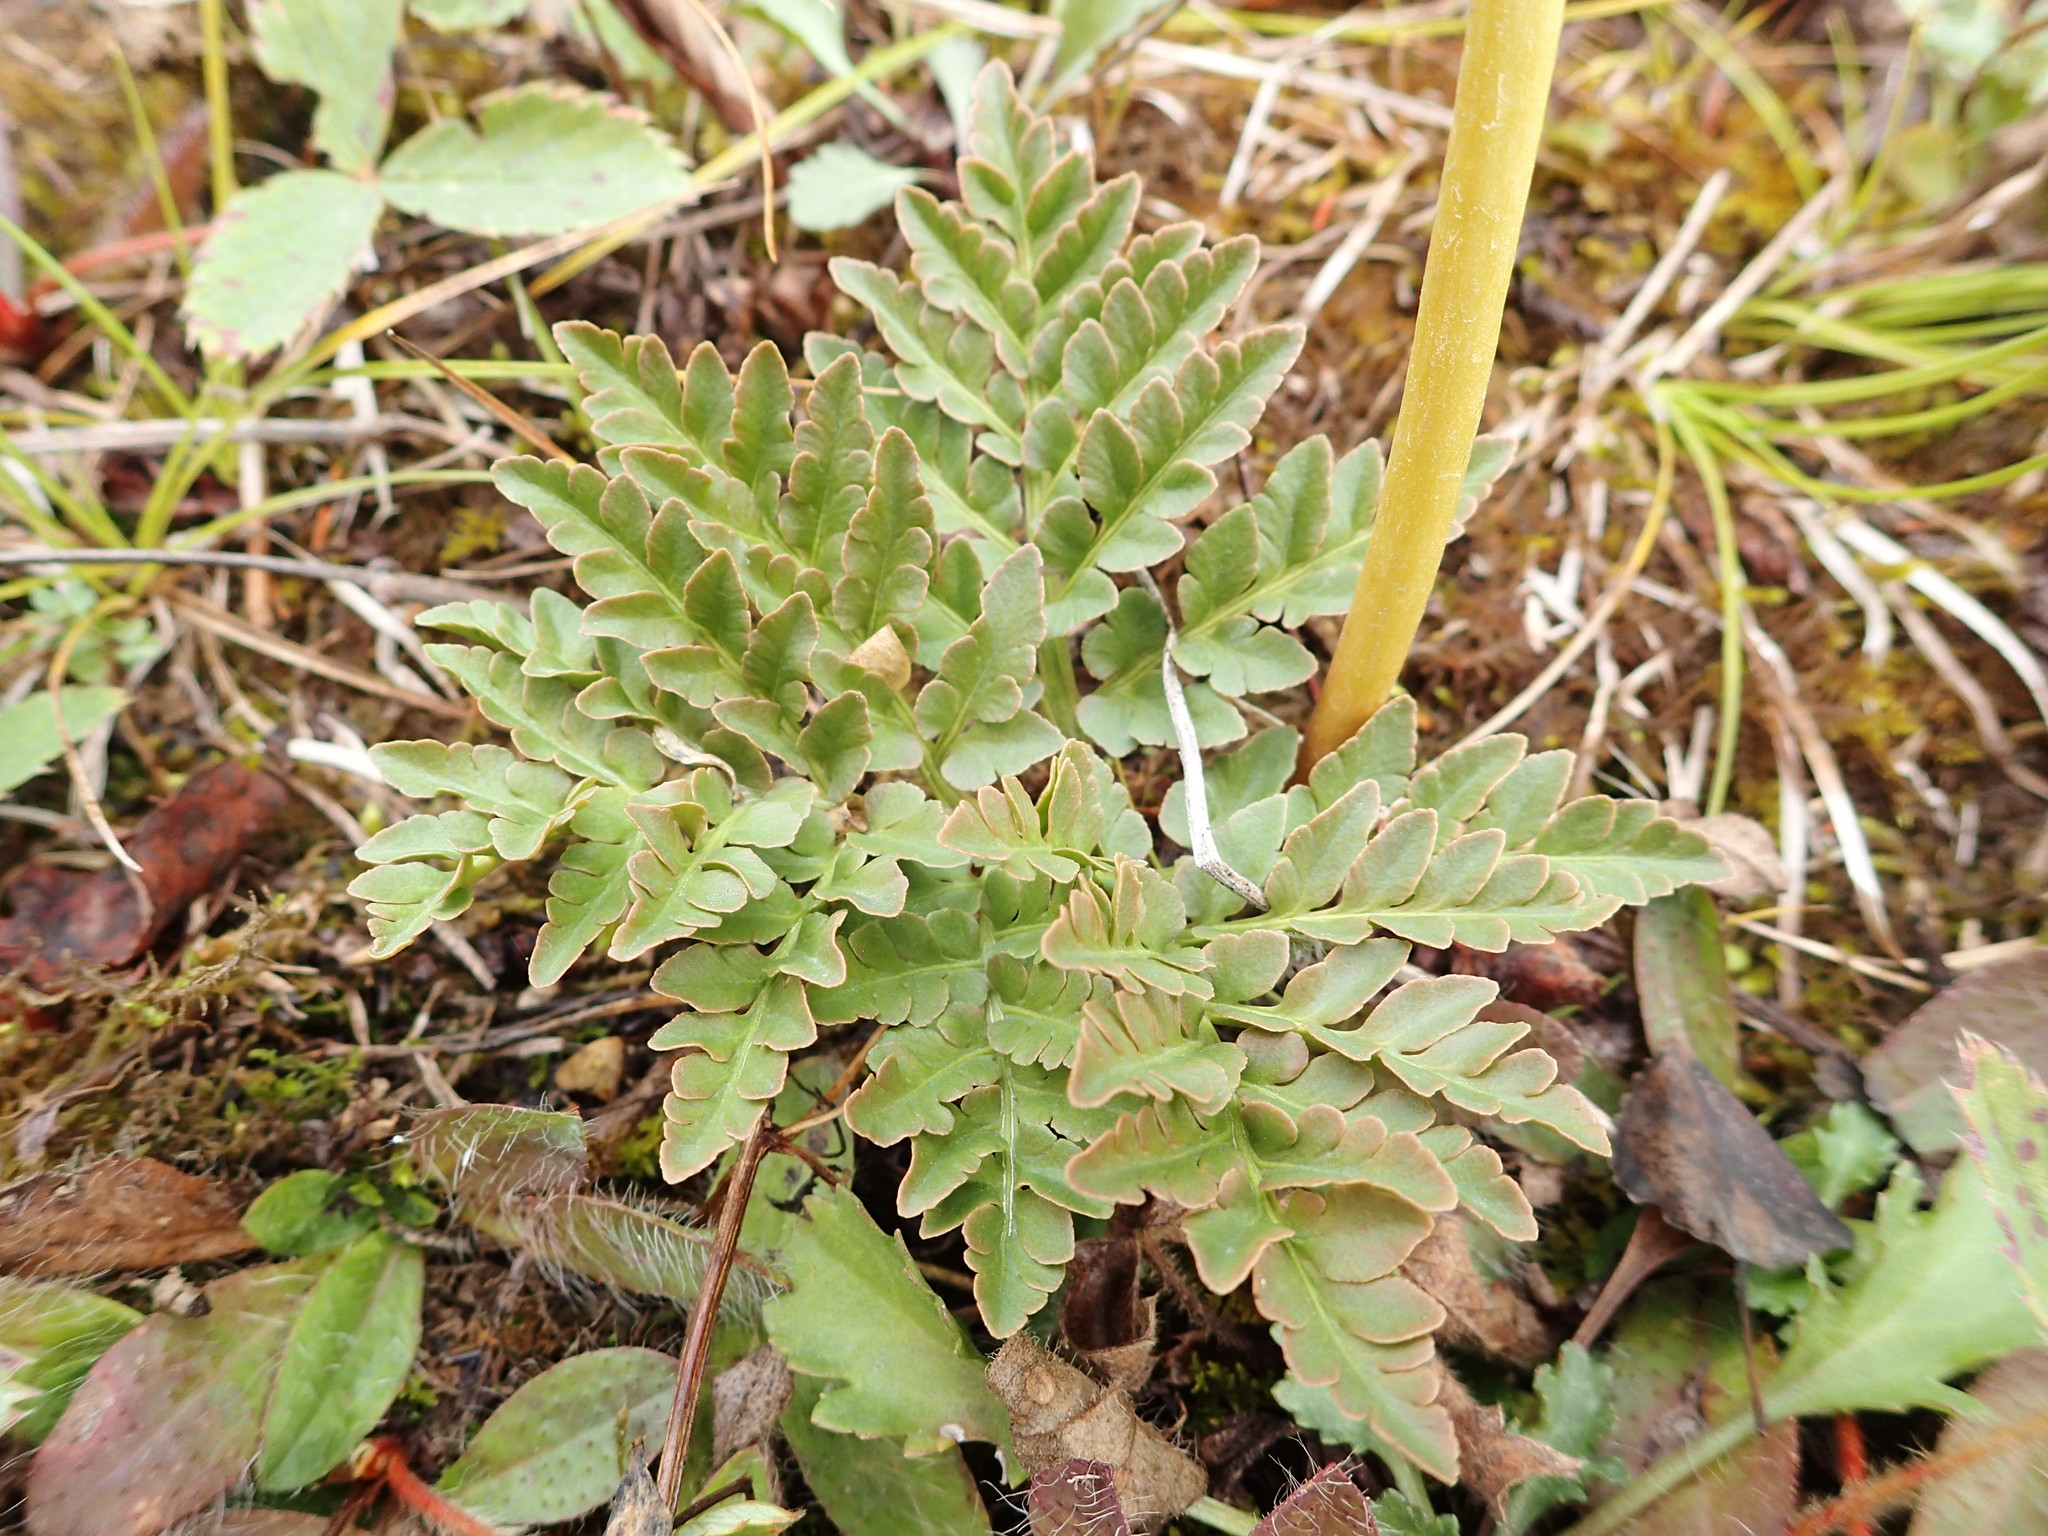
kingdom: Plantae
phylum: Tracheophyta
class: Polypodiopsida
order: Ophioglossales
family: Ophioglossaceae
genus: Sceptridium
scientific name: Sceptridium multifidum
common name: Leathery grape fern
